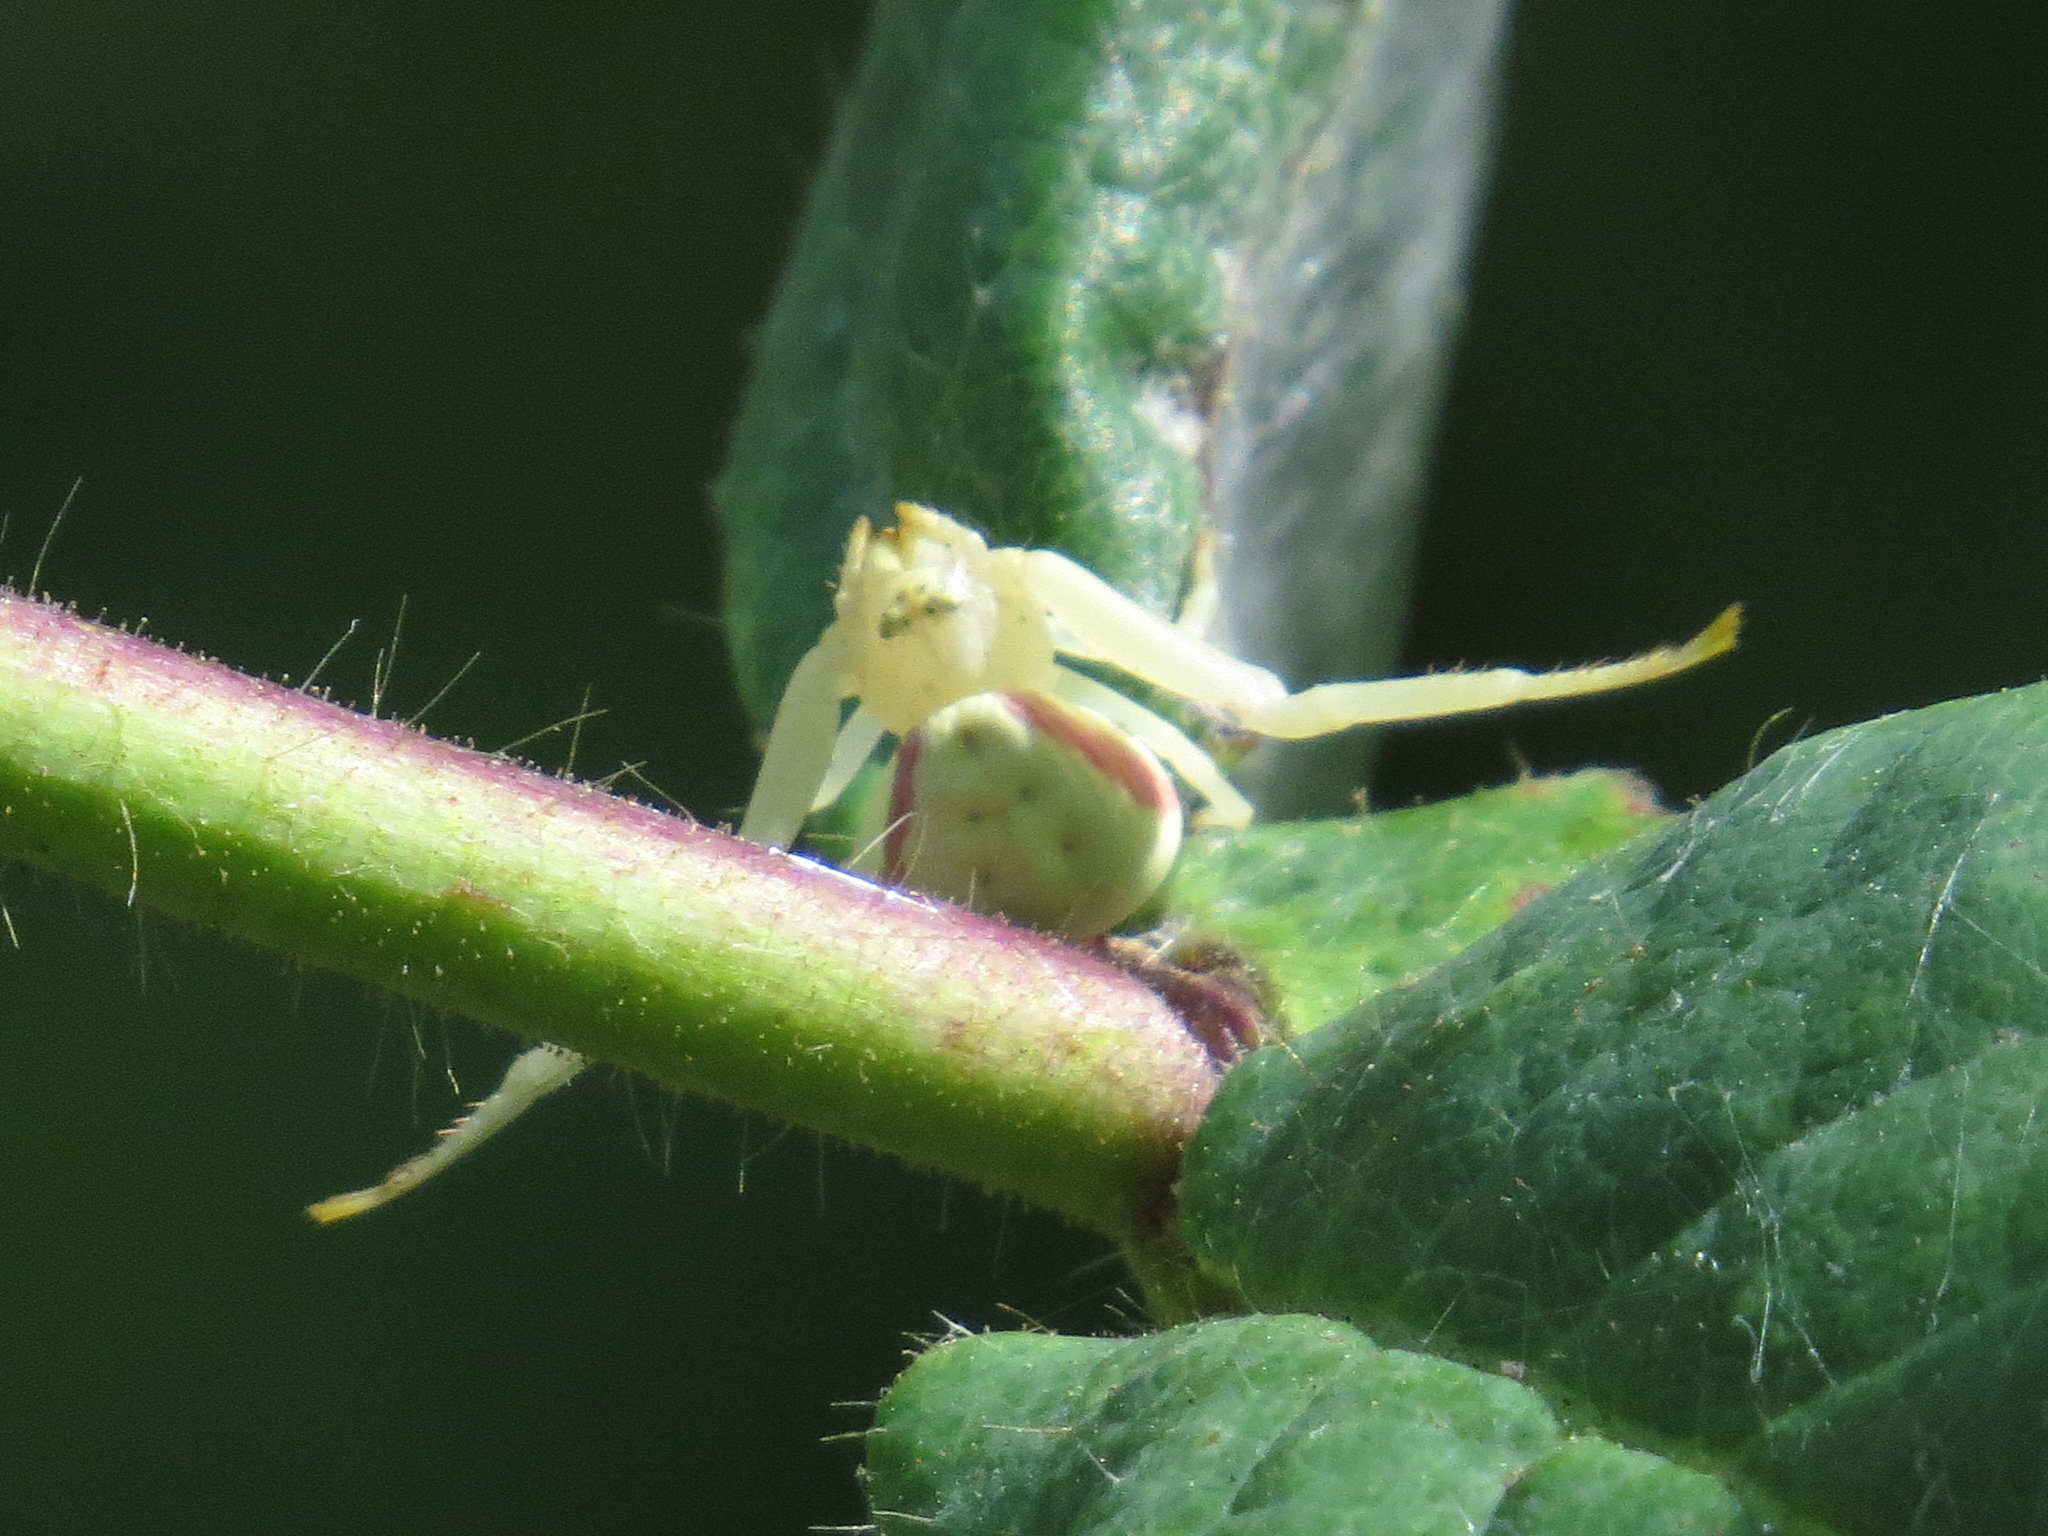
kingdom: Animalia
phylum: Arthropoda
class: Arachnida
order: Araneae
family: Thomisidae
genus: Misumena
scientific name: Misumena vatia
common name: Goldenrod crab spider
